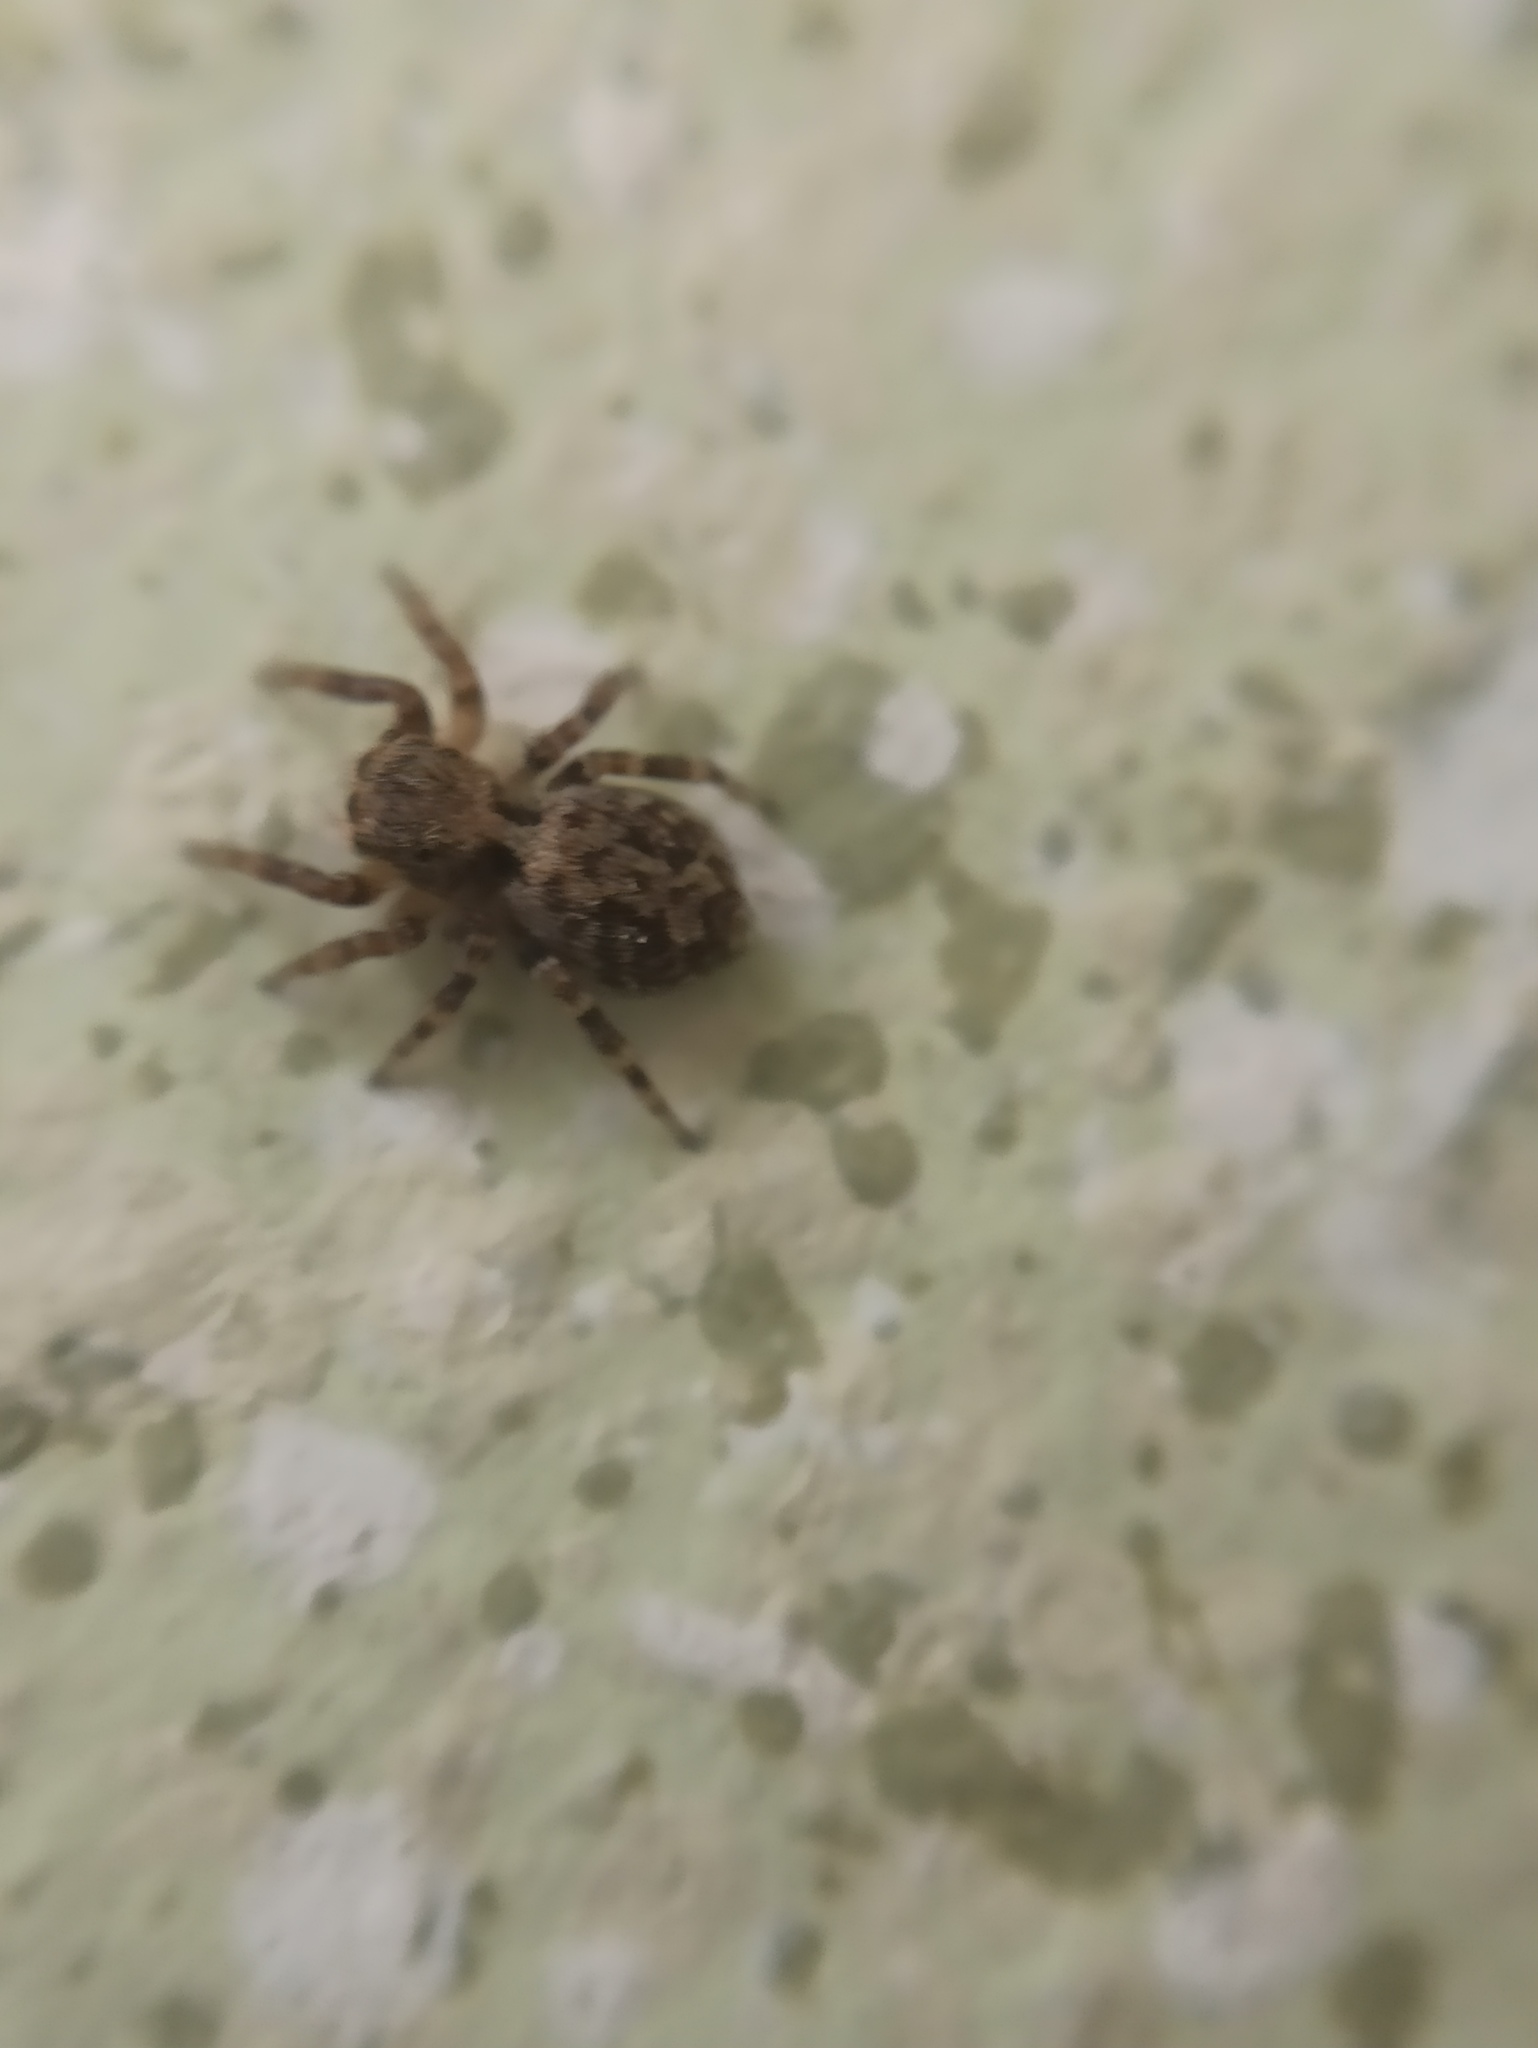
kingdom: Animalia
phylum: Arthropoda
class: Arachnida
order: Araneae
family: Salticidae
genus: Pseudeuophrys
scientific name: Pseudeuophrys lanigera
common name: Jumping spider
